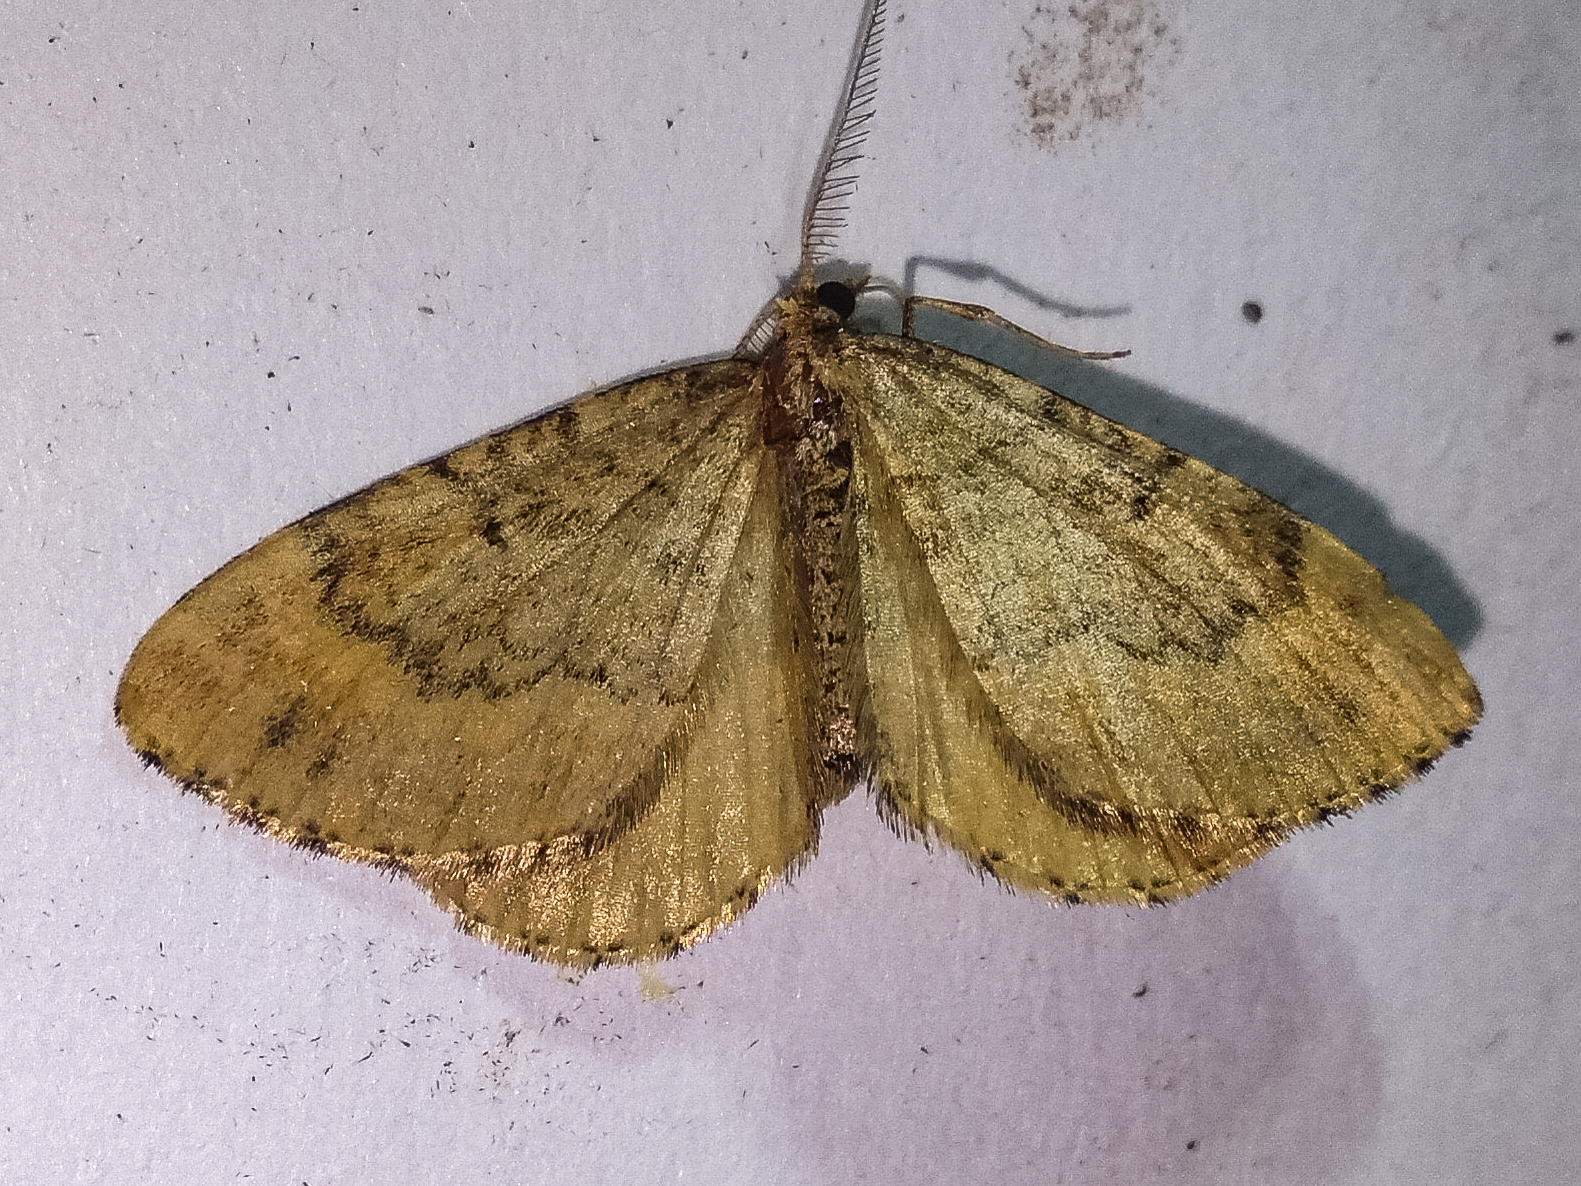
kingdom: Animalia
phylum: Arthropoda
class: Insecta
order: Lepidoptera
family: Geometridae
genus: Asaphodes
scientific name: Asaphodes aegrota
